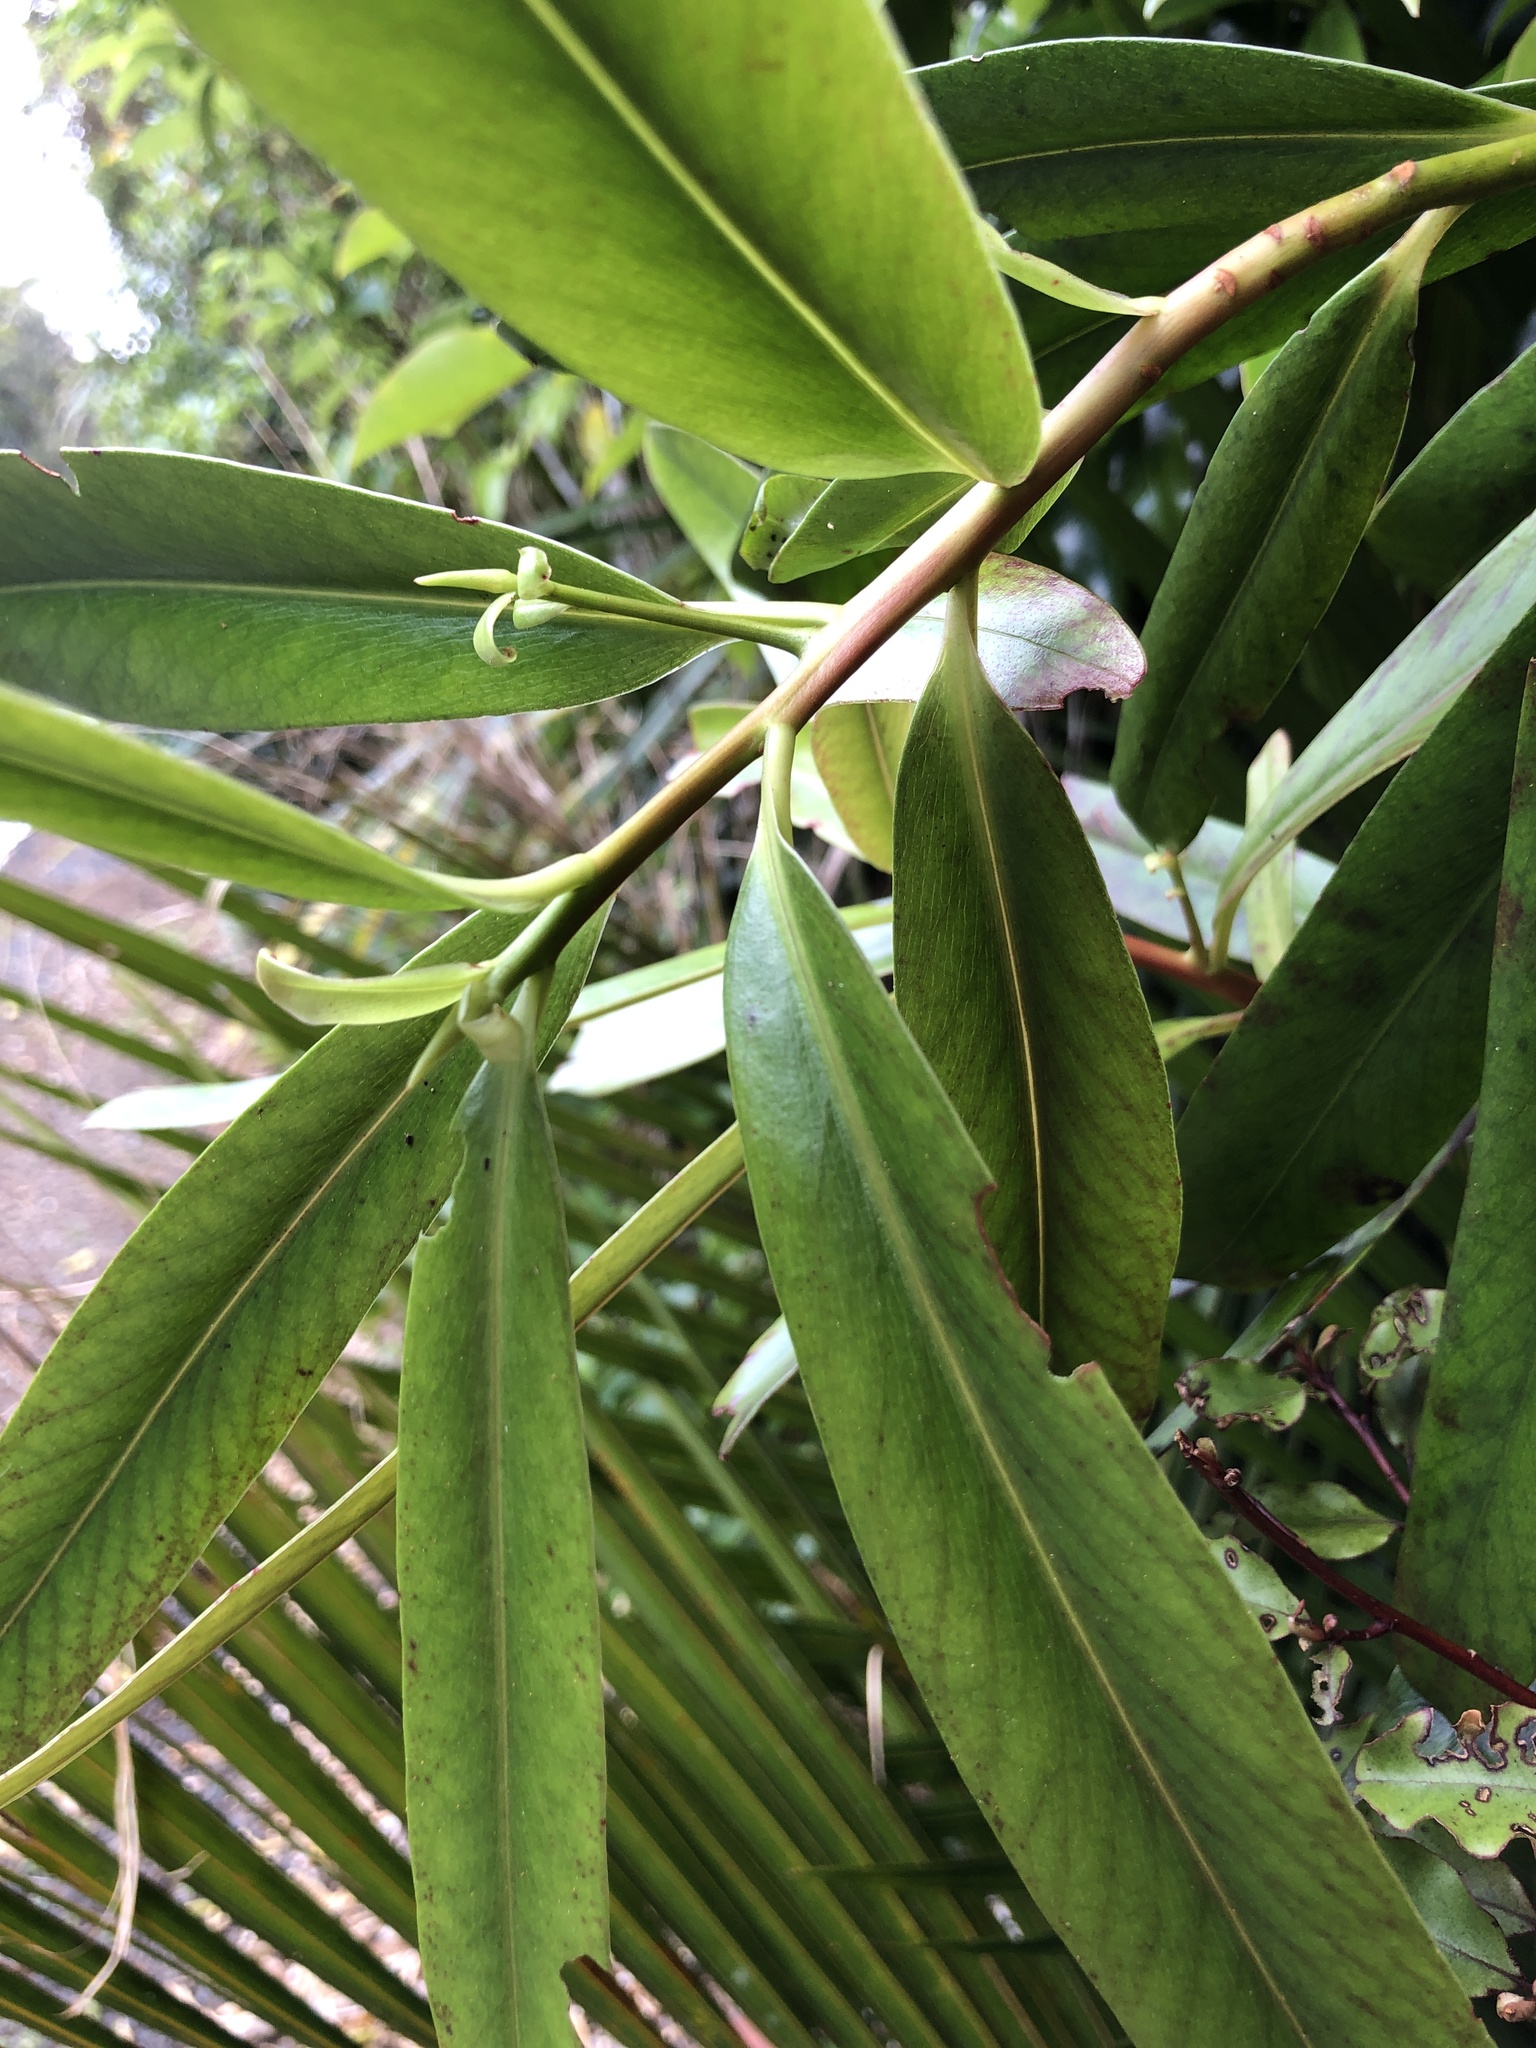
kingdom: Plantae
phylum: Tracheophyta
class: Magnoliopsida
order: Ericales
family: Primulaceae
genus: Myrsine
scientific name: Myrsine salicina
